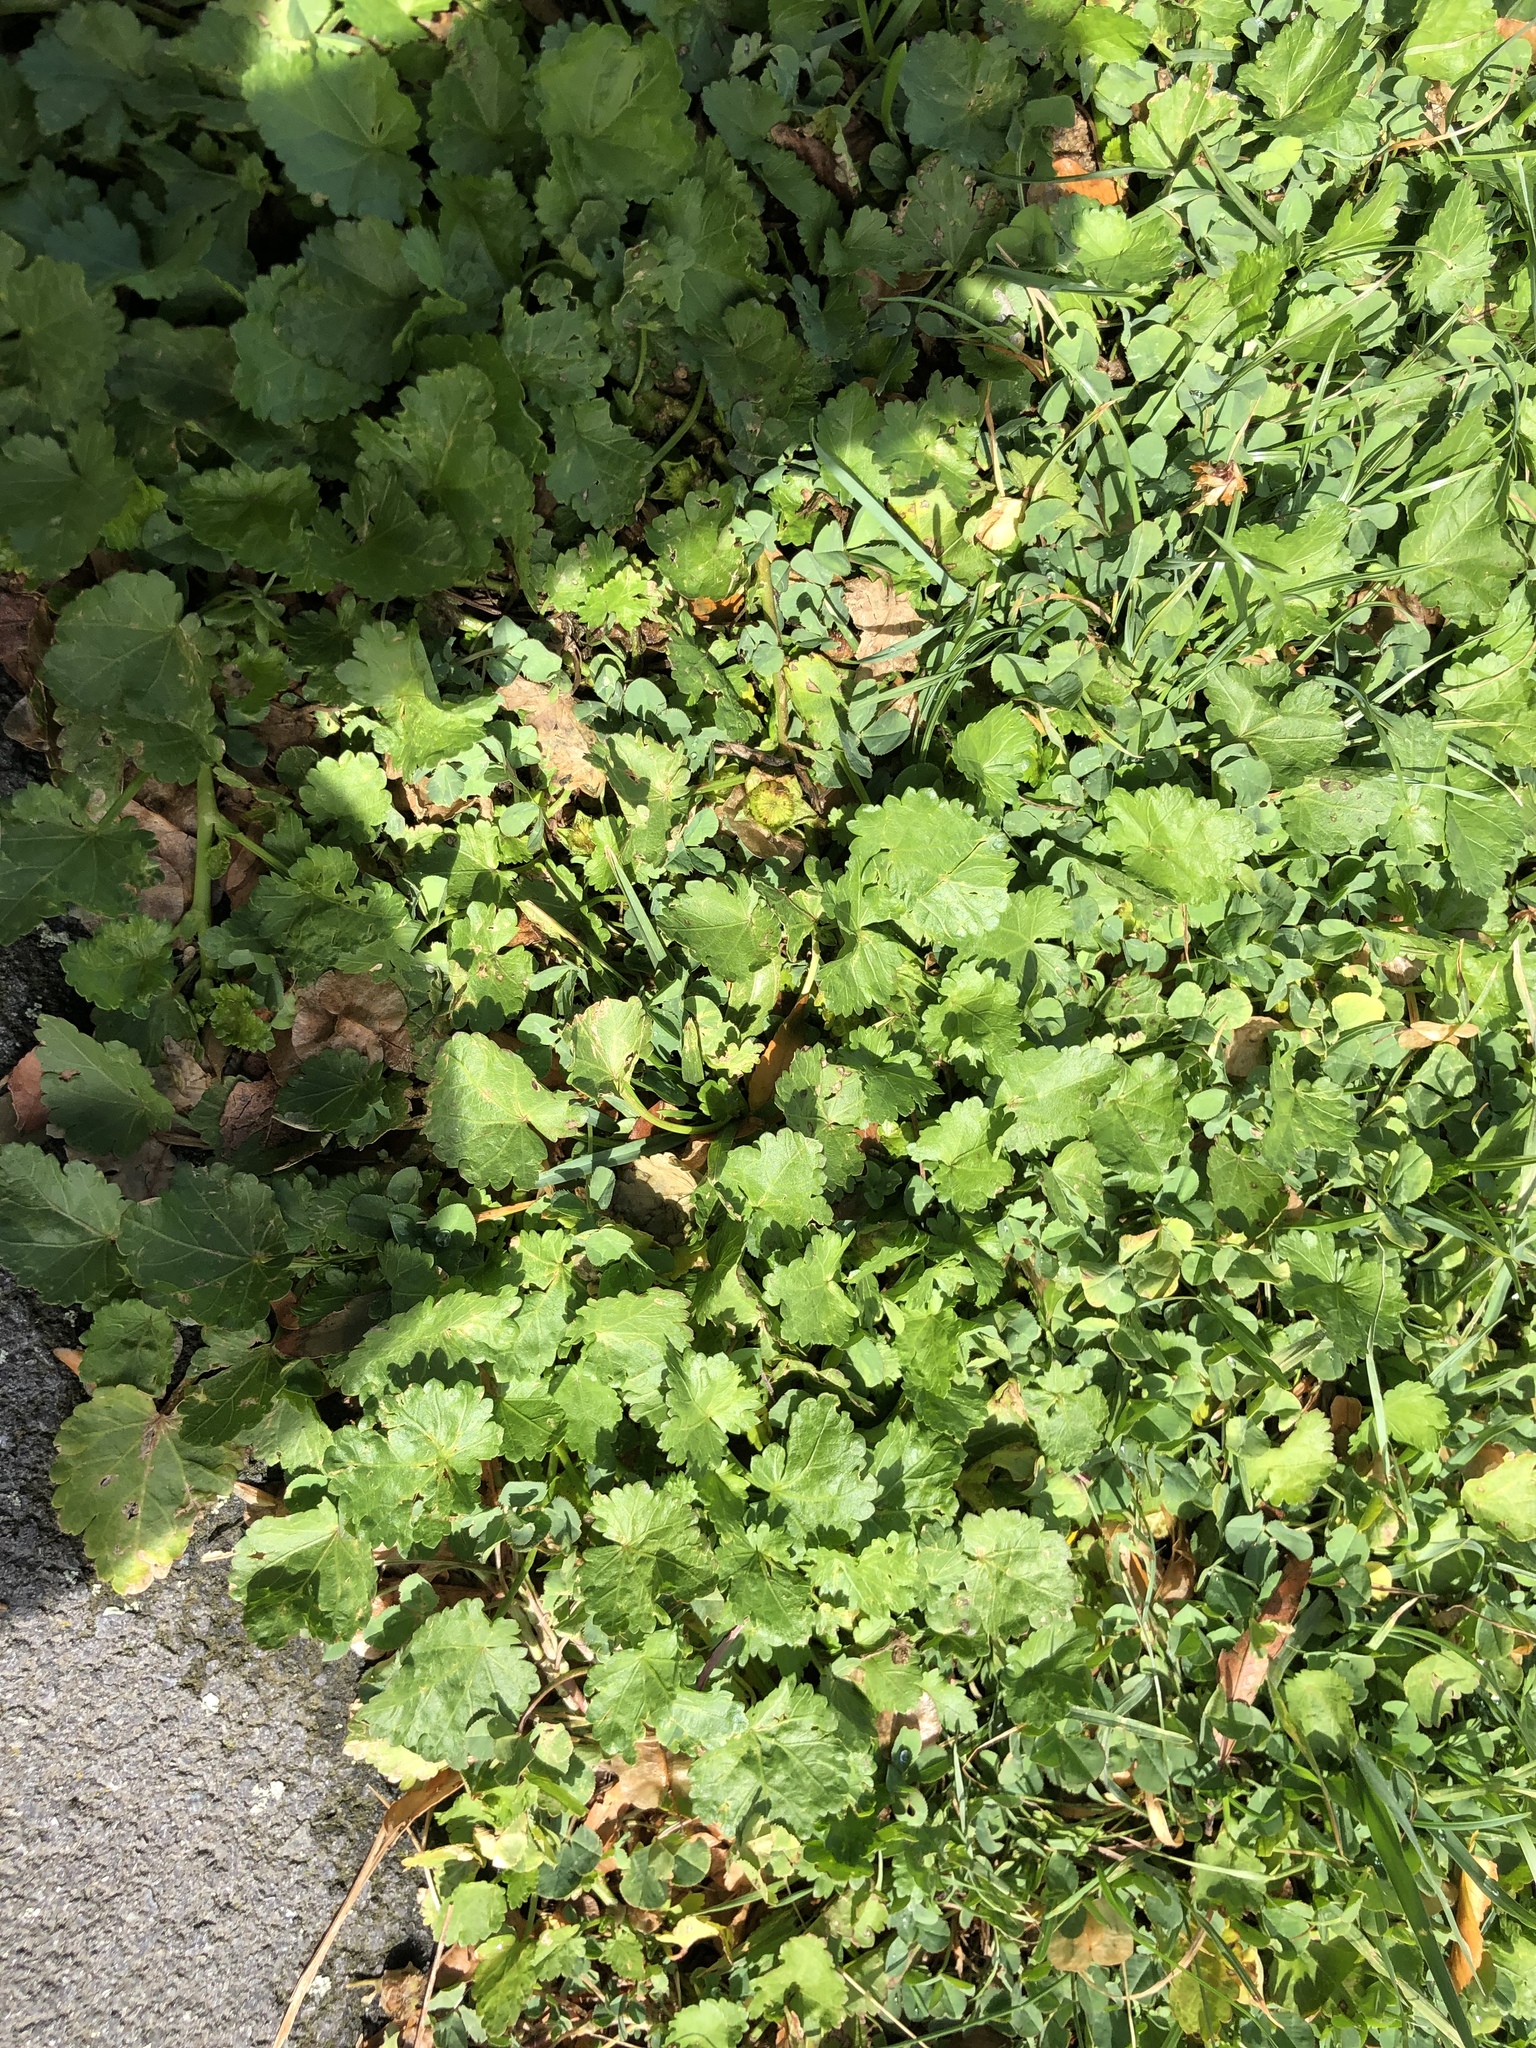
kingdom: Plantae
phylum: Tracheophyta
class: Magnoliopsida
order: Malvales
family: Malvaceae
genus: Modiola
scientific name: Modiola caroliniana
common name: Carolina bristlemallow
